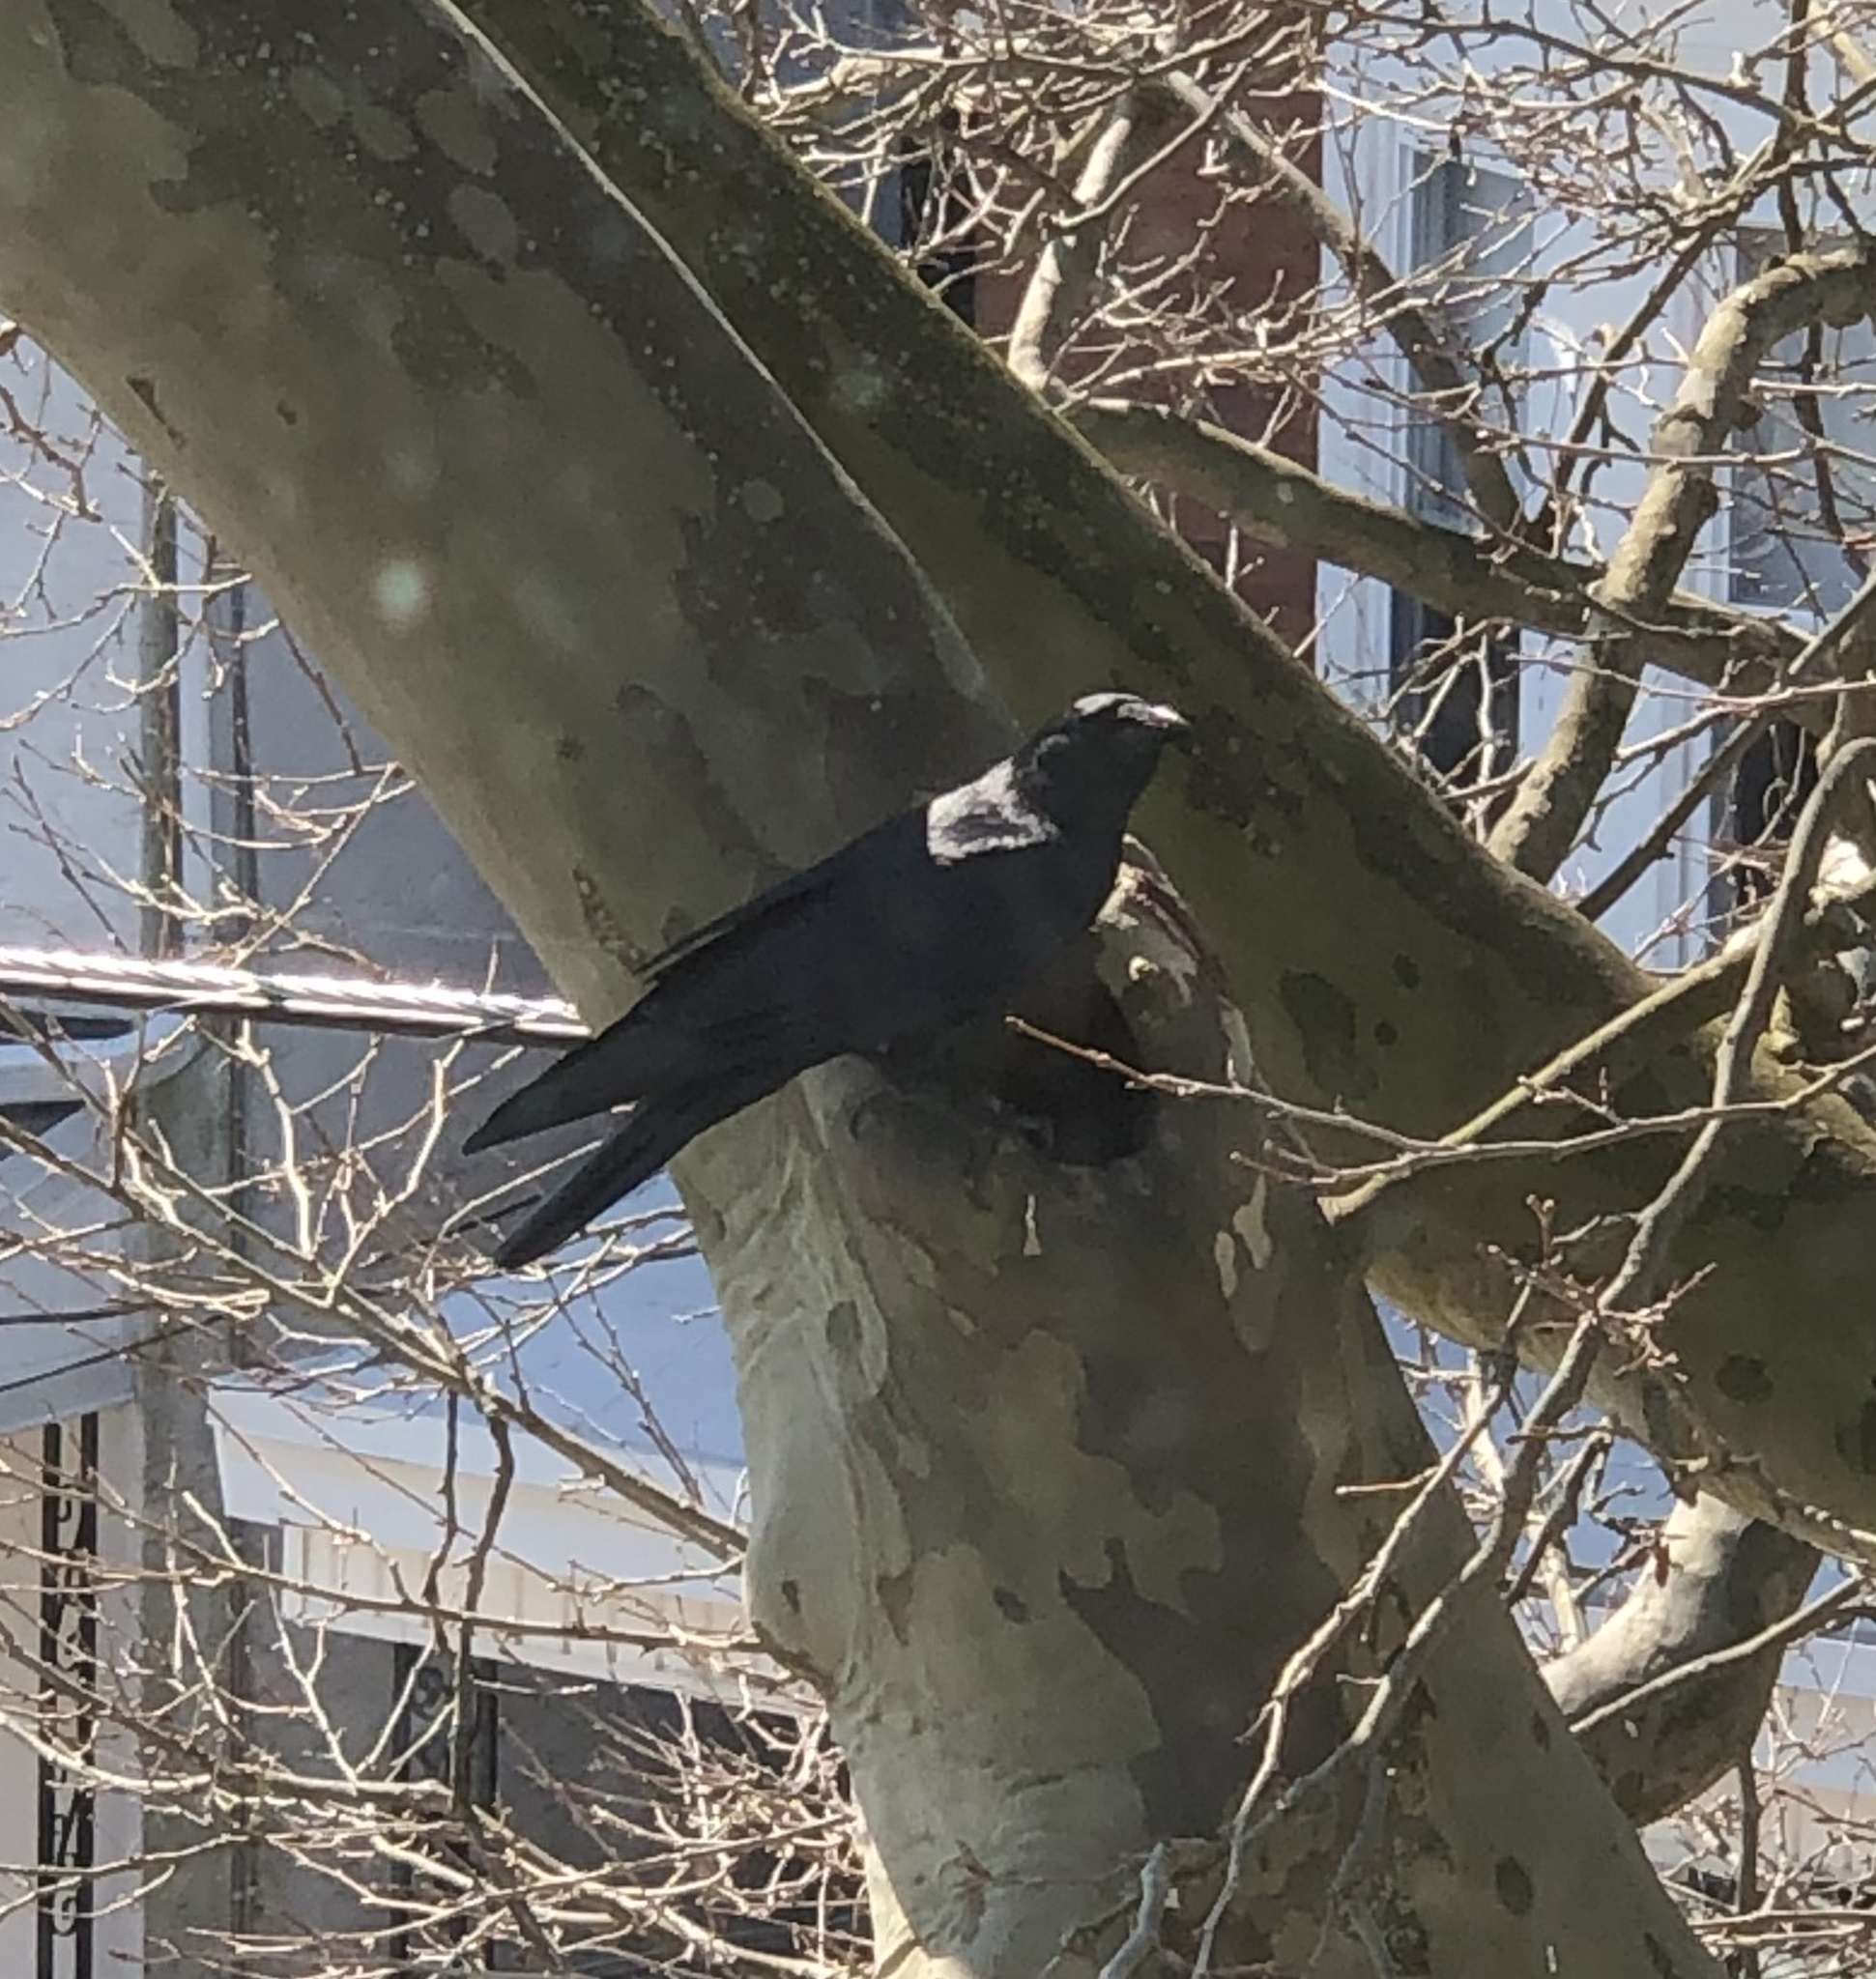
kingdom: Animalia
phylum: Chordata
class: Aves
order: Passeriformes
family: Corvidae
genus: Corvus
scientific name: Corvus ossifragus
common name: Fish crow
